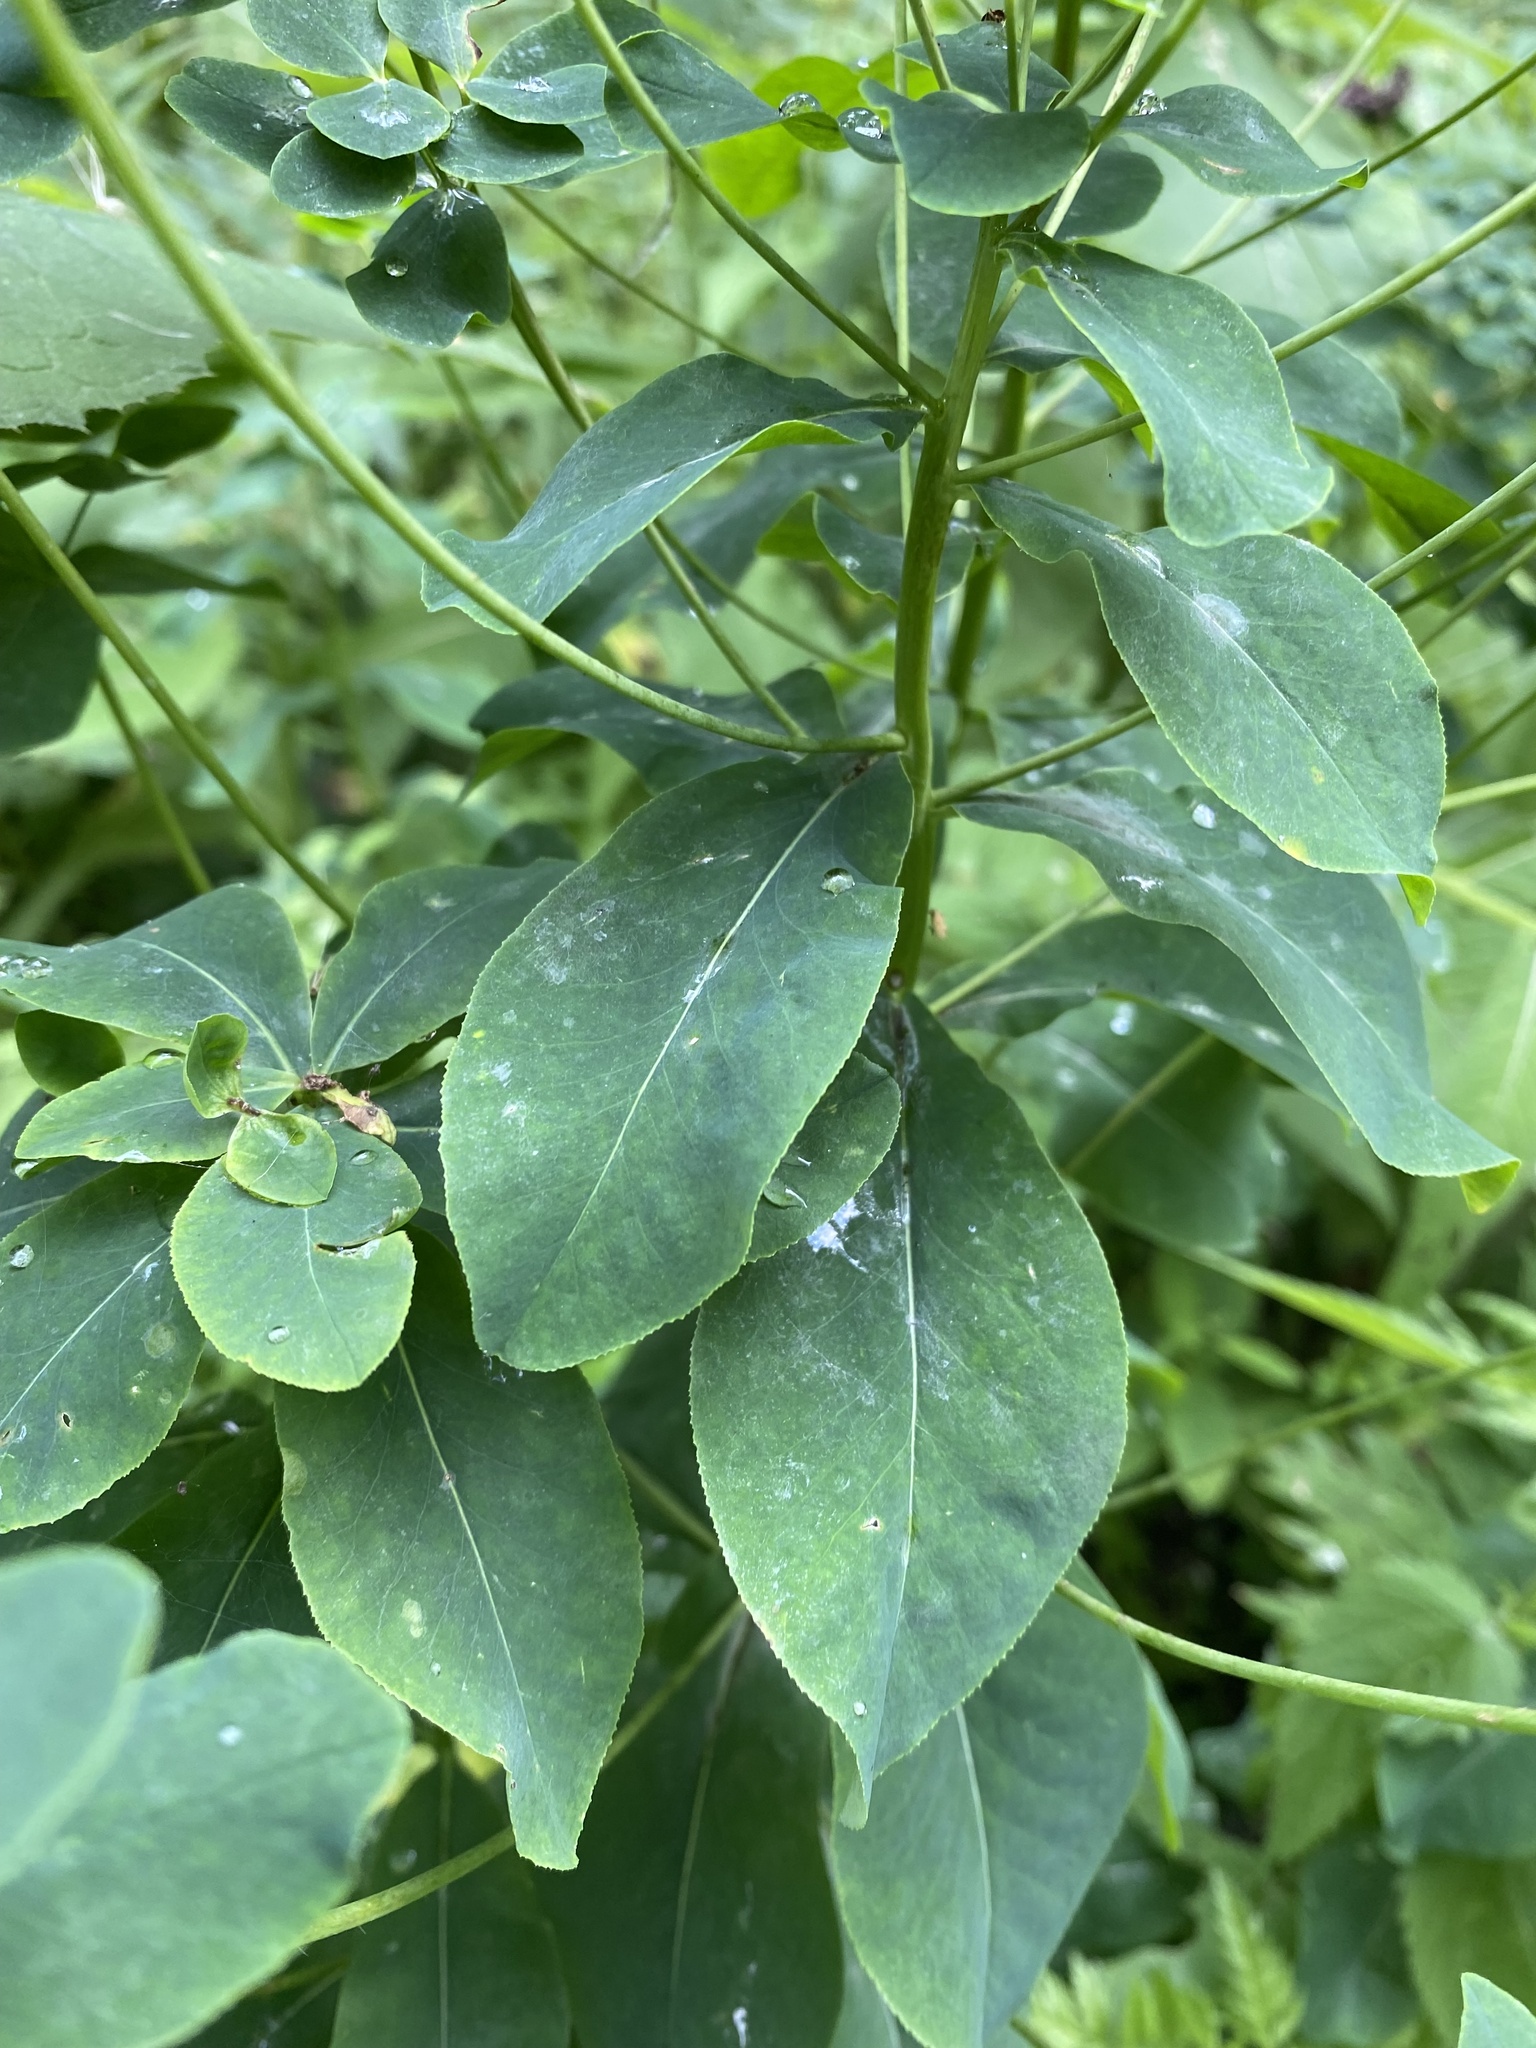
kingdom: Plantae
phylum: Tracheophyta
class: Magnoliopsida
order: Malpighiales
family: Euphorbiaceae
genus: Euphorbia
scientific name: Euphorbia pilosa
